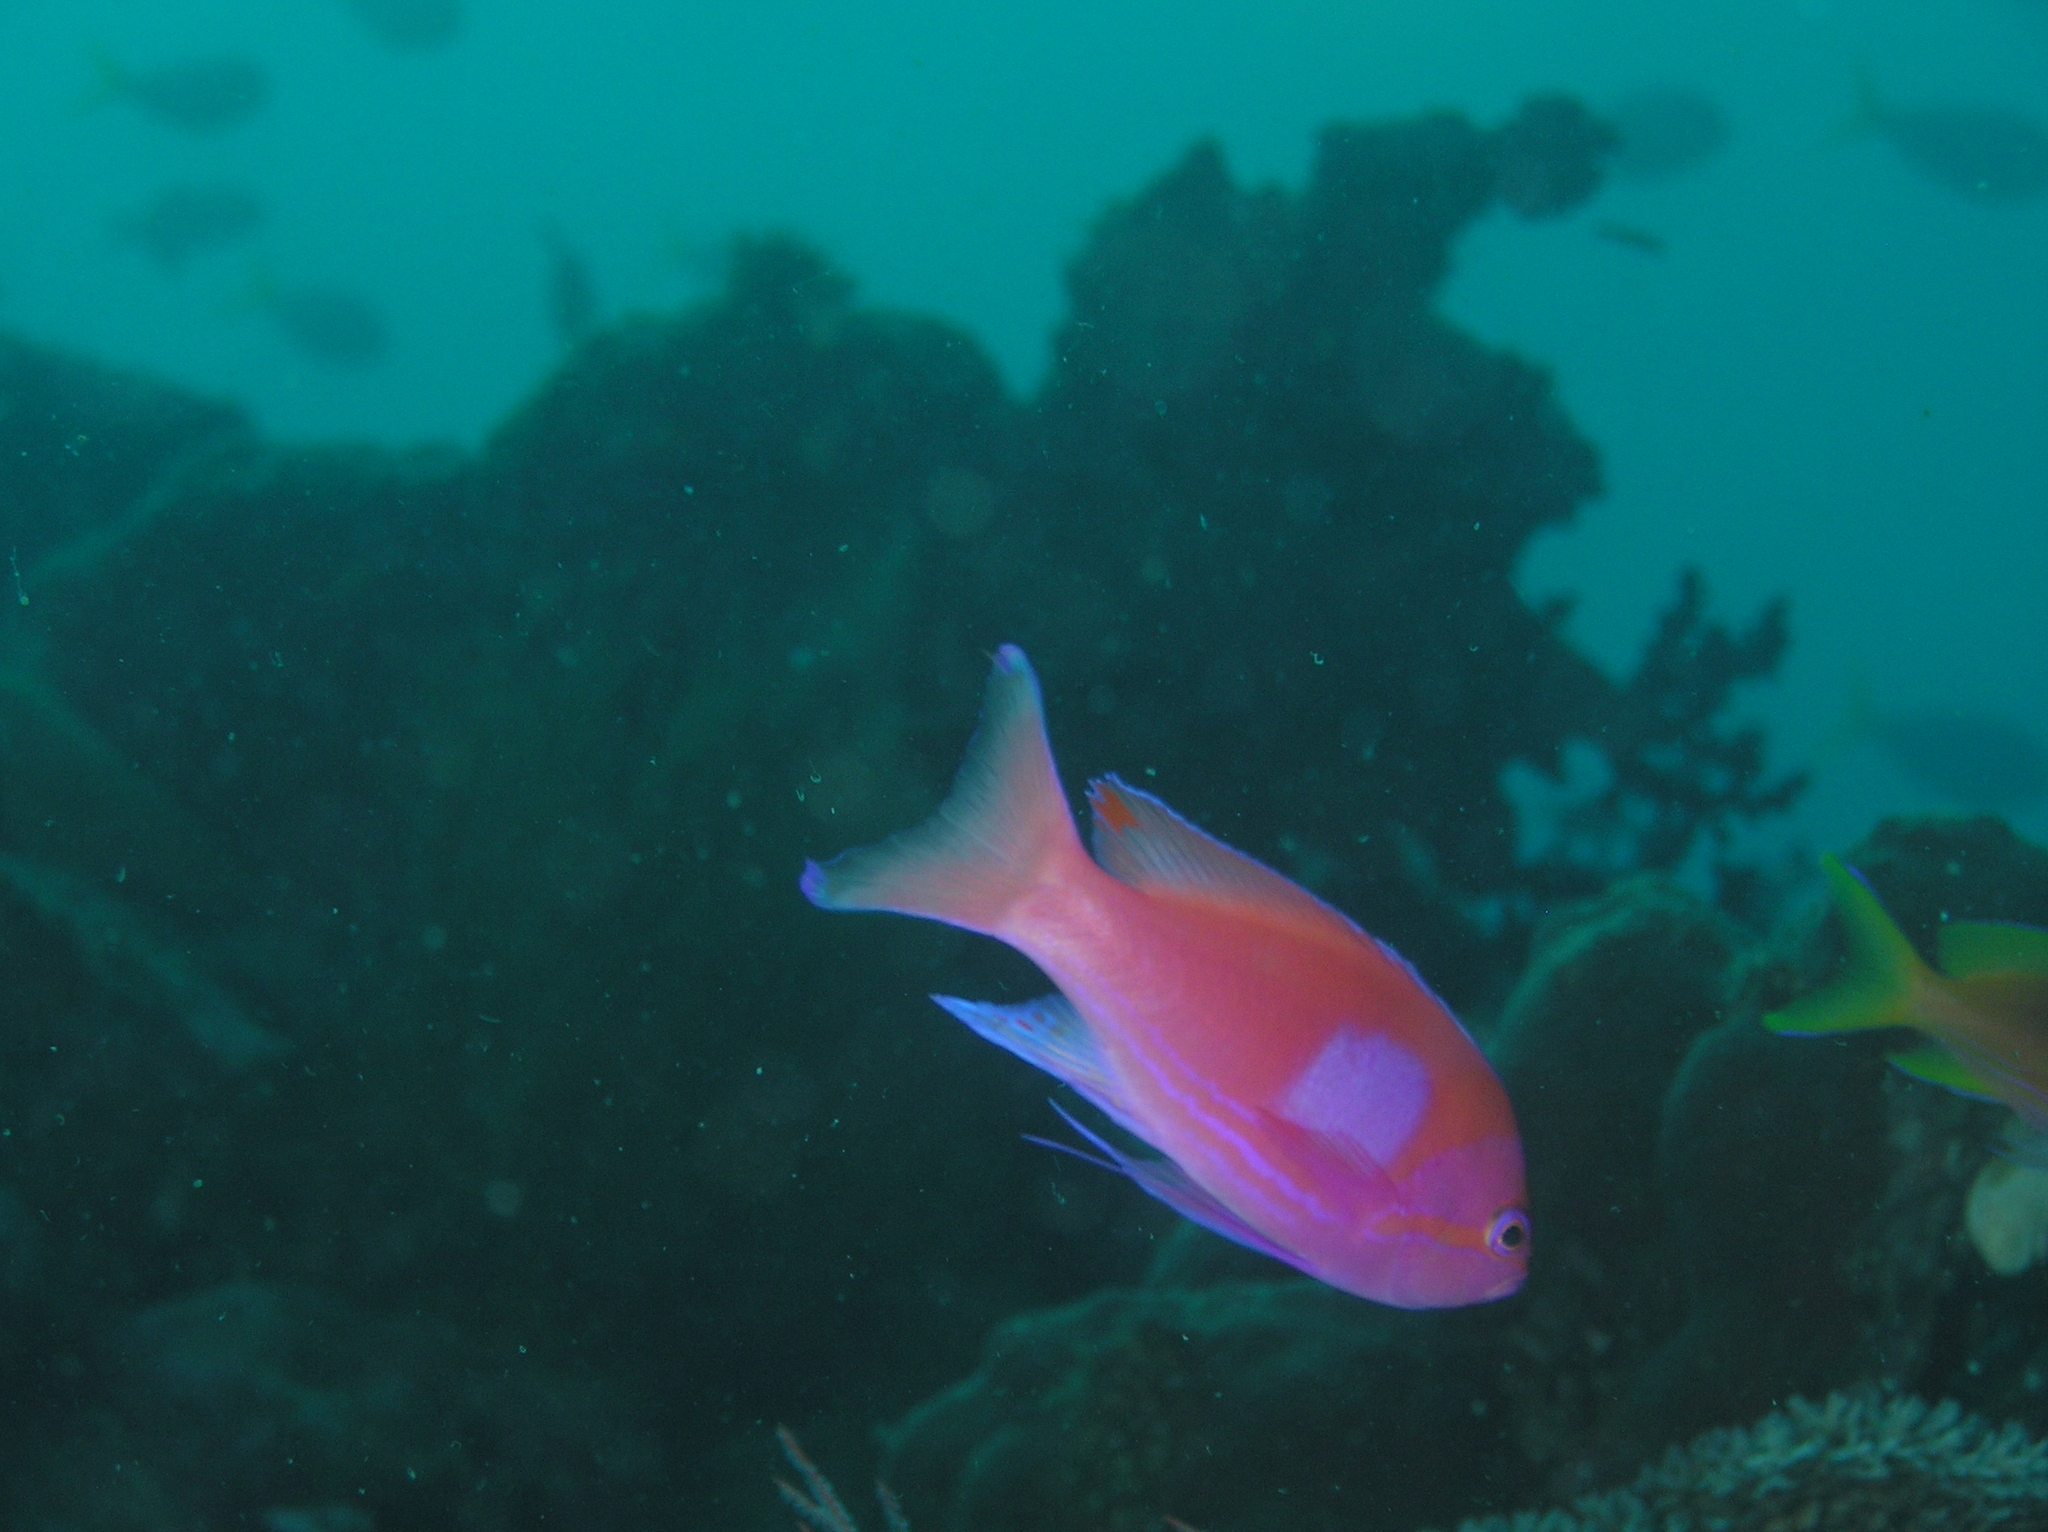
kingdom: Animalia
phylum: Chordata
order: Perciformes
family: Serranidae
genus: Pseudanthias
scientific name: Pseudanthias pleurotaenia
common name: Mirror basslet
